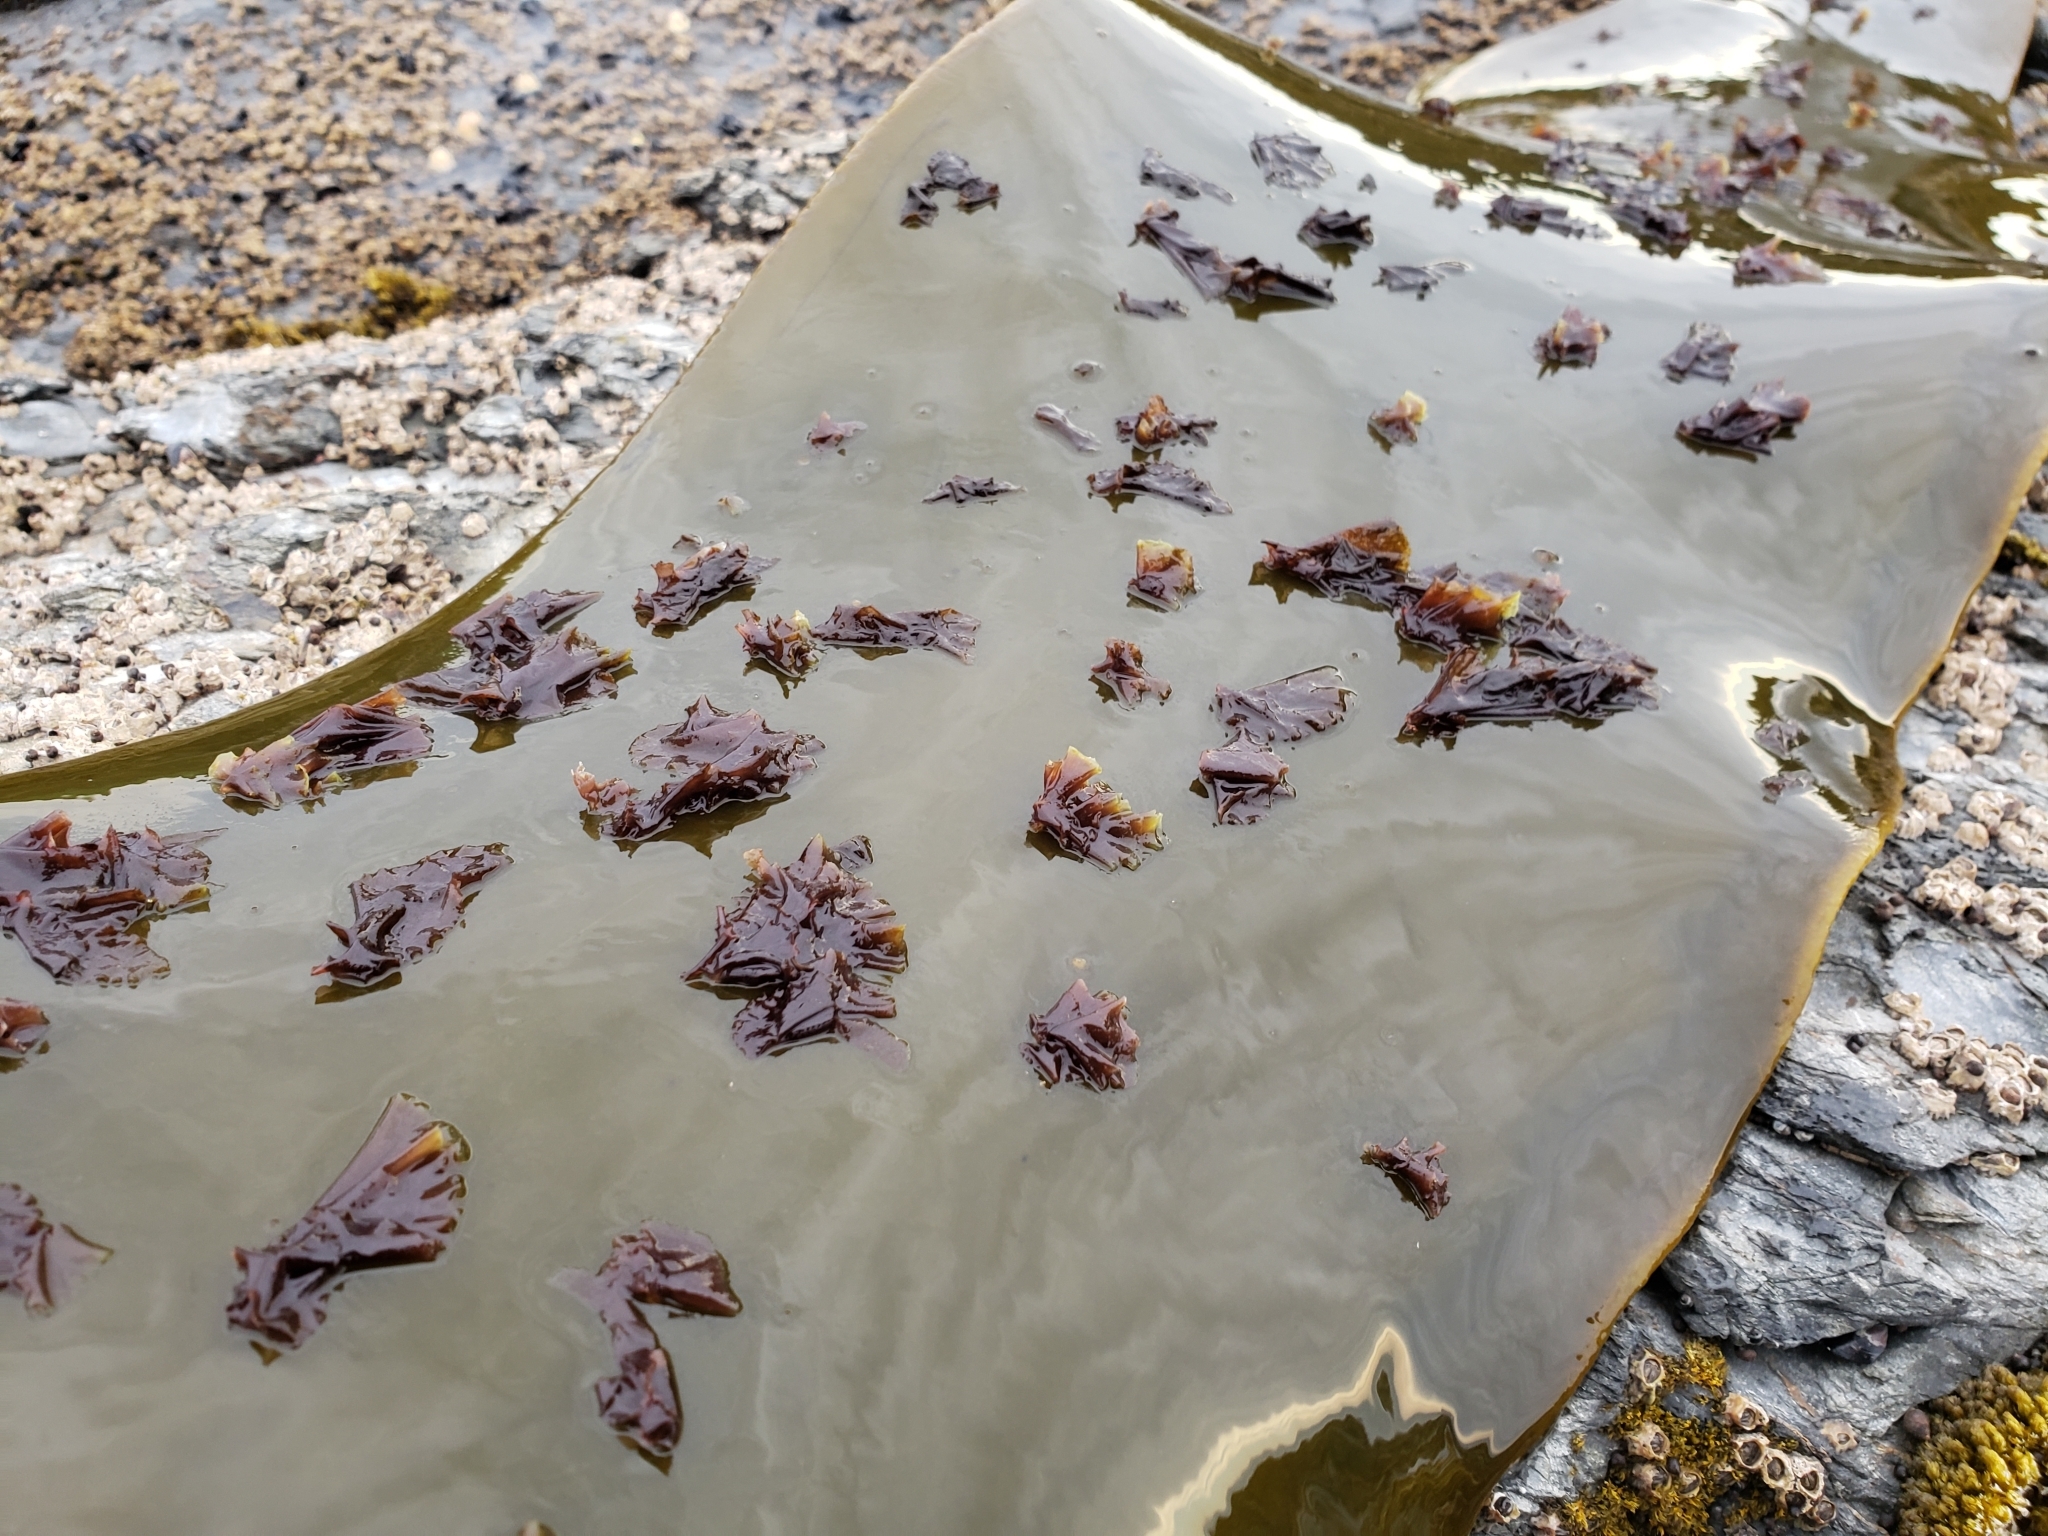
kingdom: Plantae
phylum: Rhodophyta
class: Compsopogonophyceae
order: Erythropeltidales
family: Erythrotrichiaceae
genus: Pyrophyllon
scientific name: Pyrophyllon subtumens
